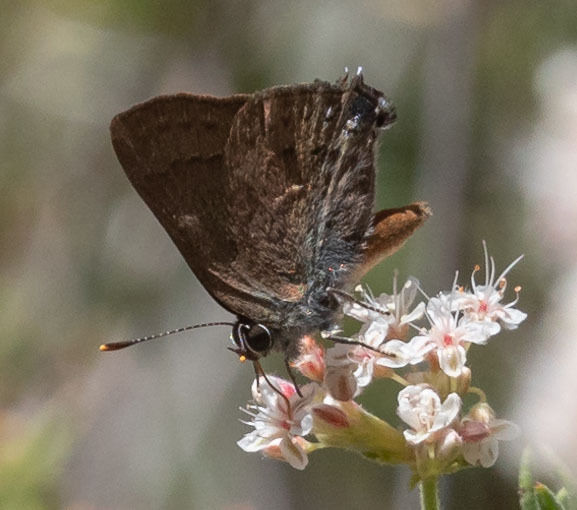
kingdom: Animalia
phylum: Arthropoda
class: Insecta
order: Lepidoptera
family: Lycaenidae
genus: Strymon
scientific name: Strymon saepium
